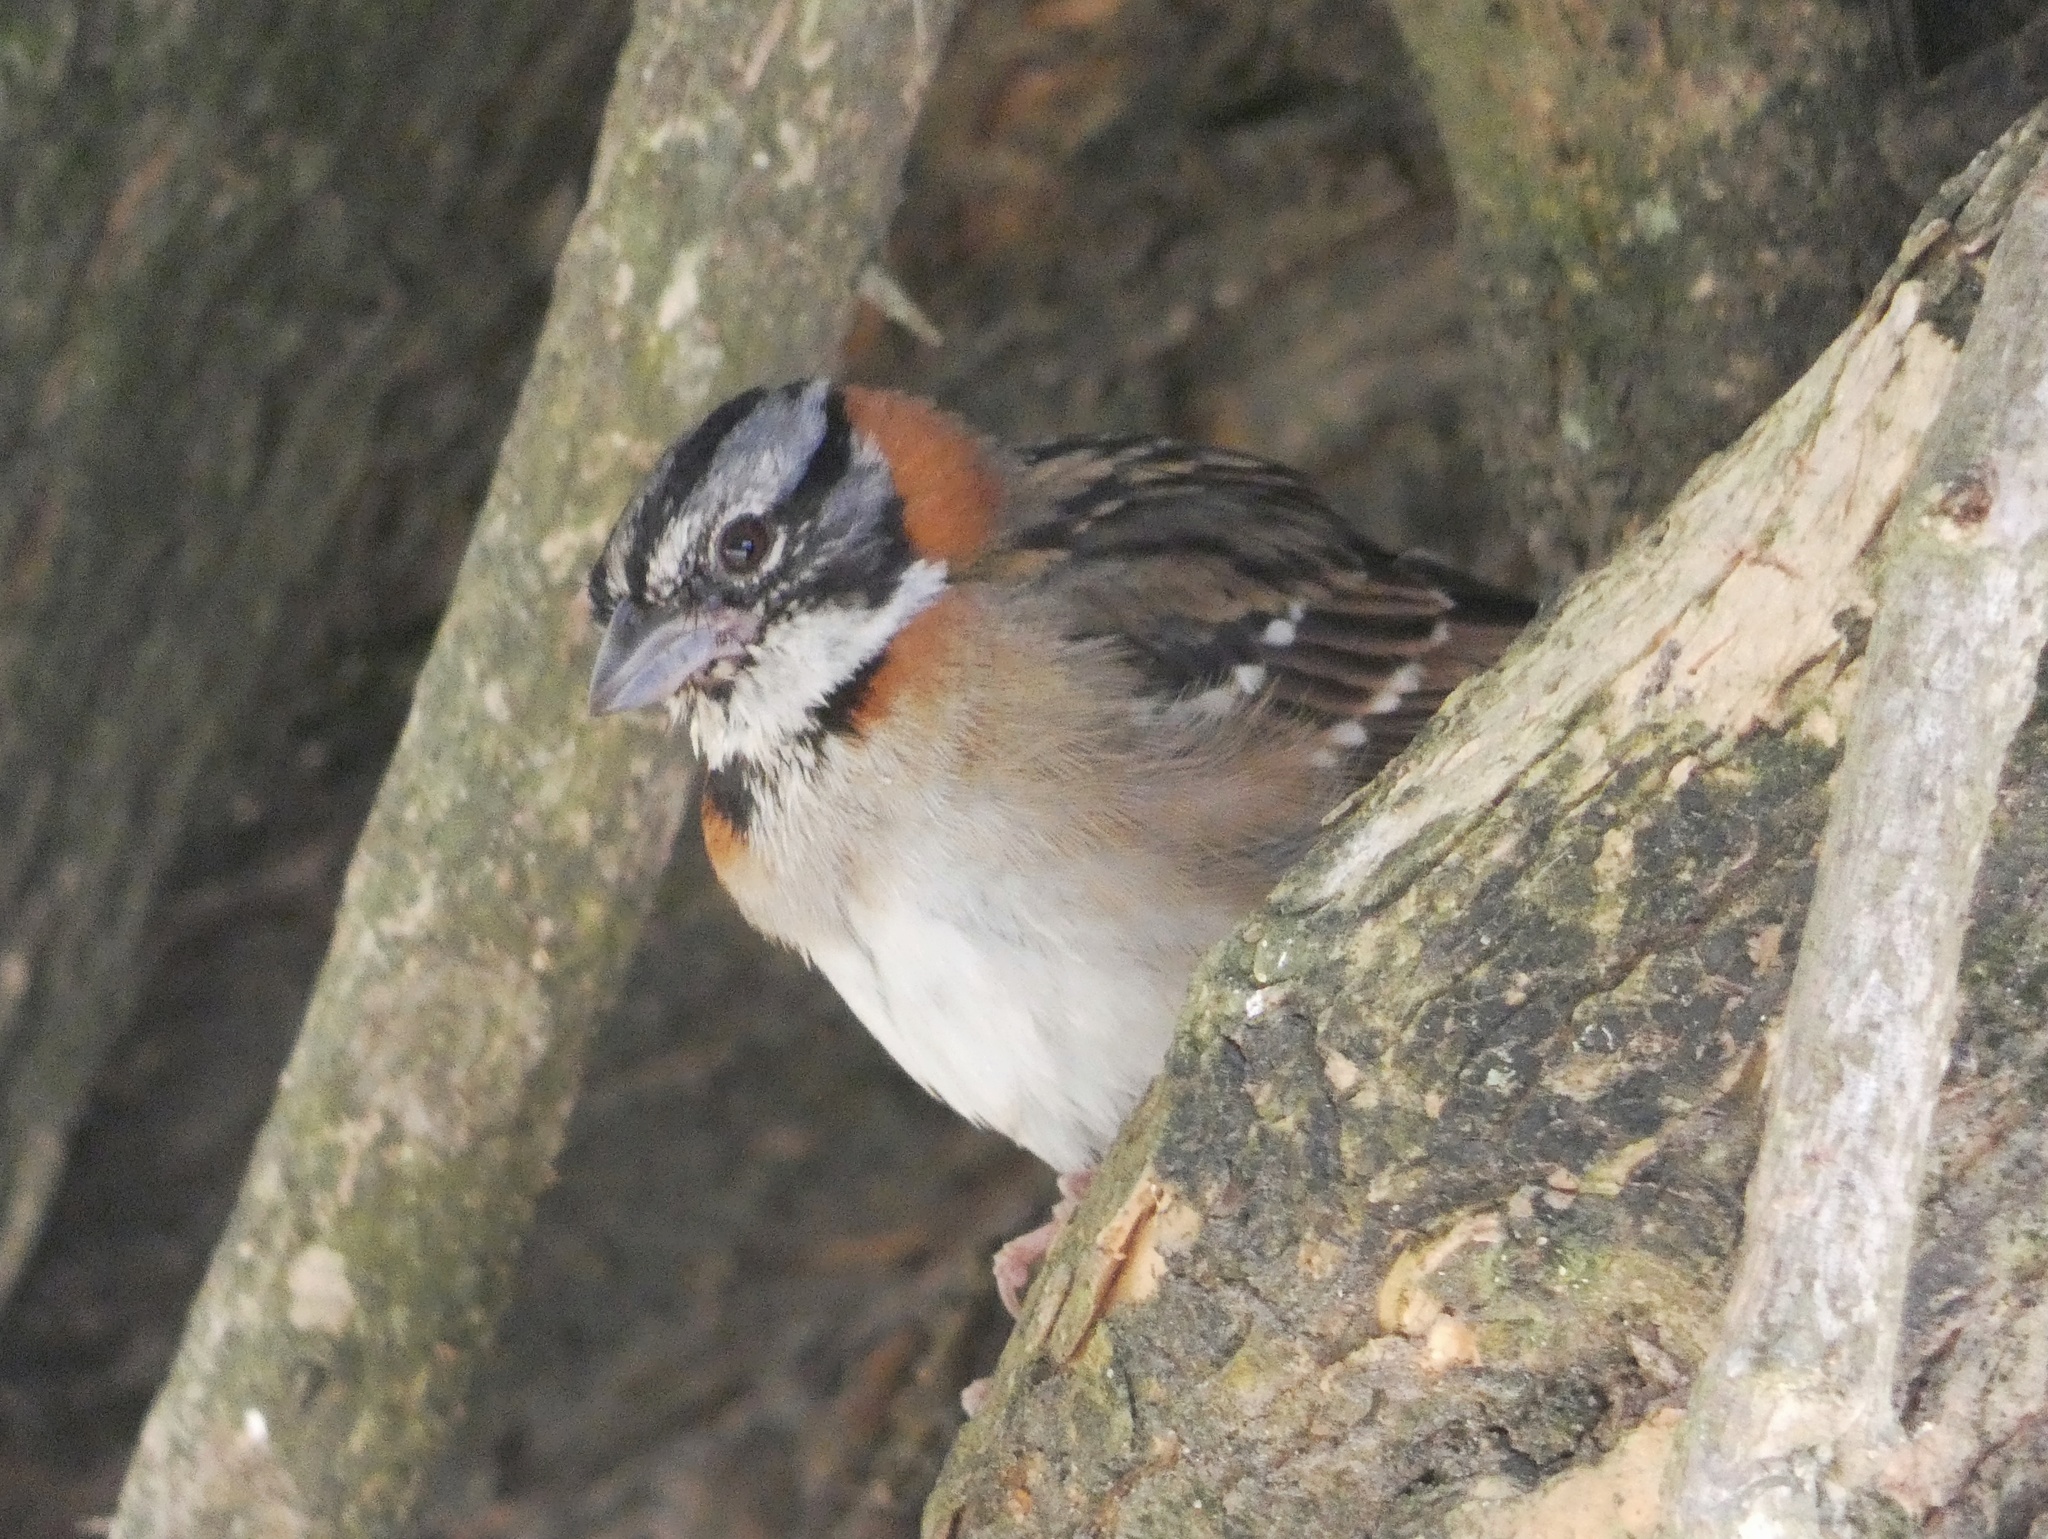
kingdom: Animalia
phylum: Chordata
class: Aves
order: Passeriformes
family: Passerellidae
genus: Zonotrichia
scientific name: Zonotrichia capensis
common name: Rufous-collared sparrow
